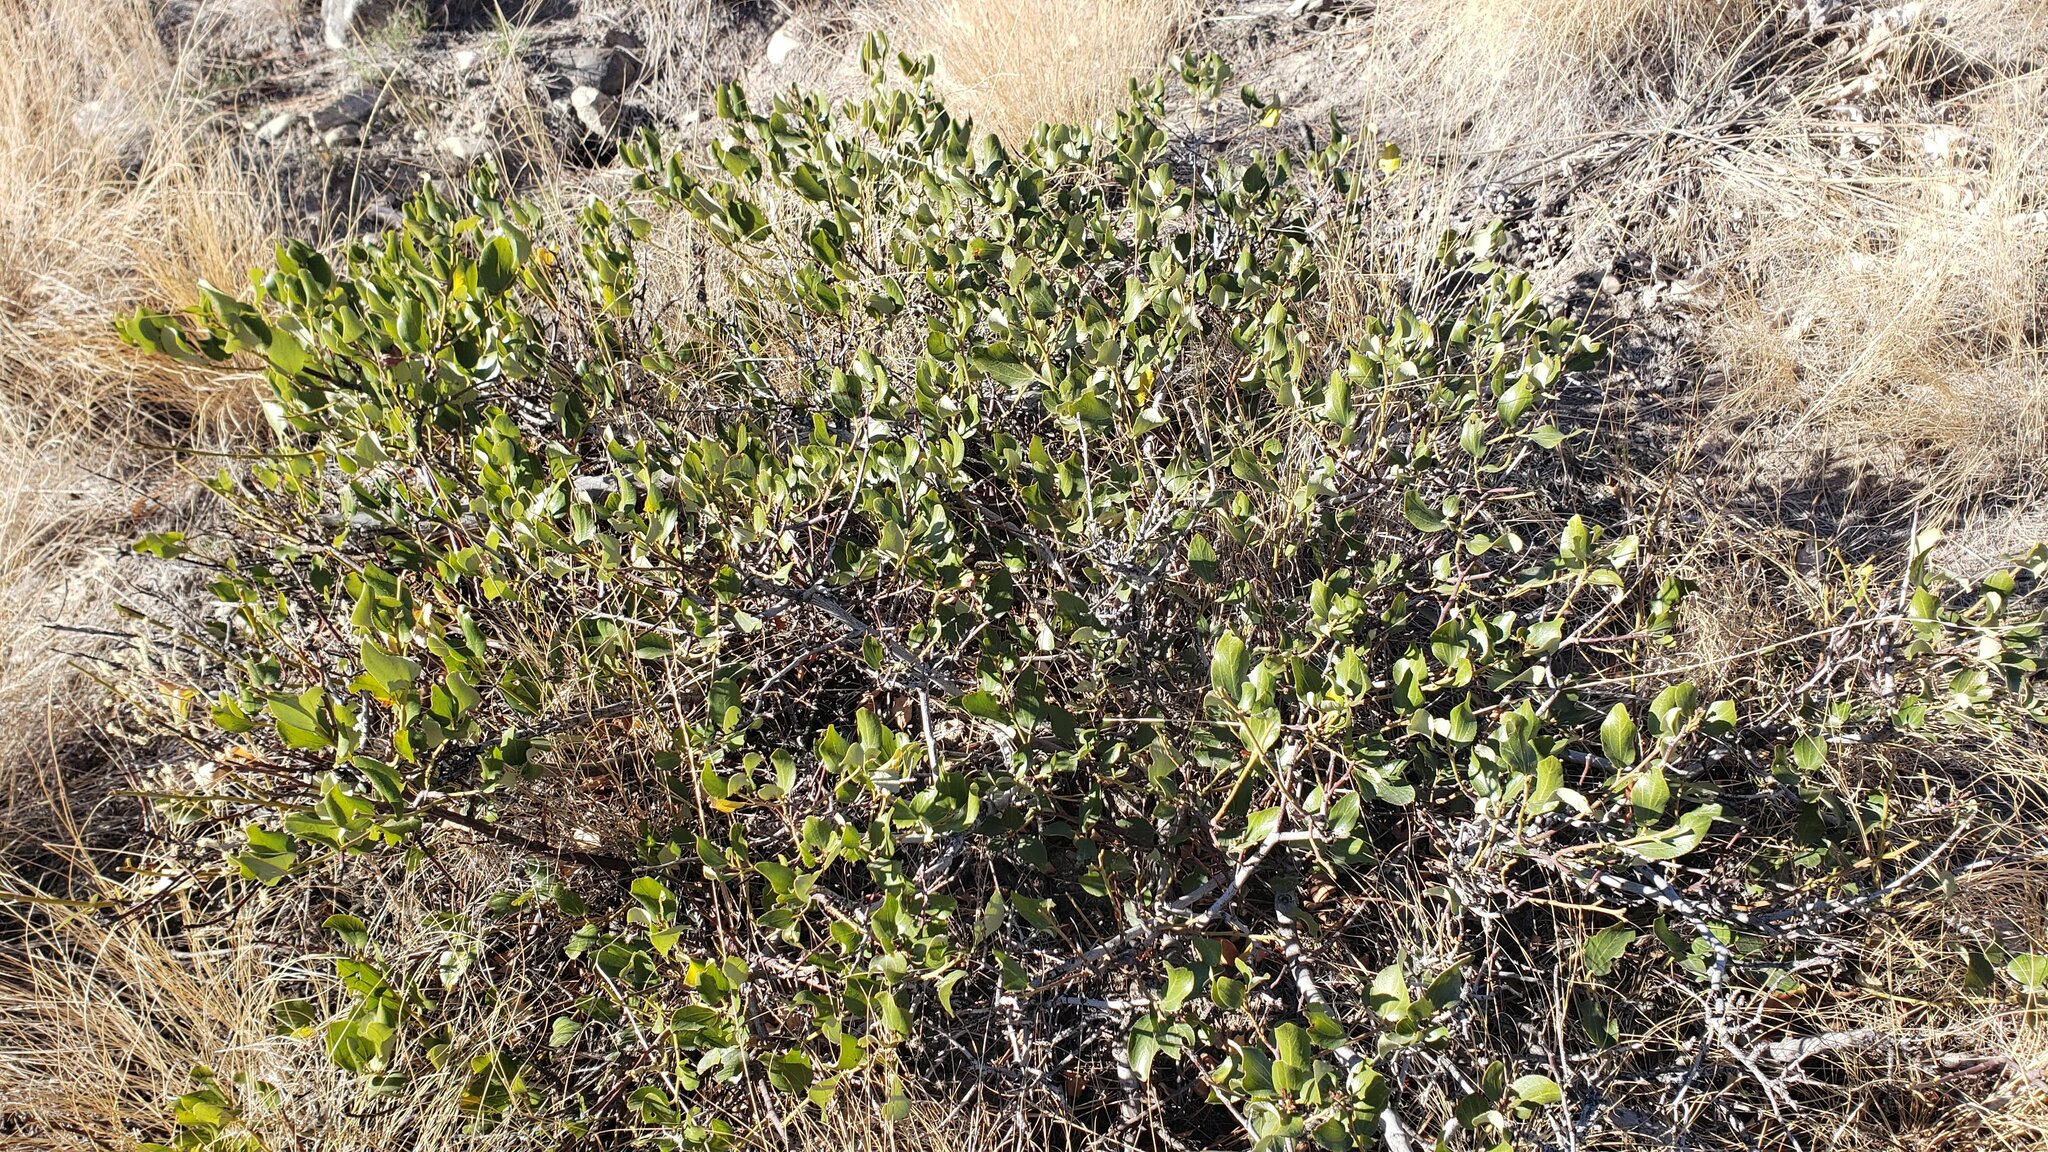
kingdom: Plantae
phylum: Tracheophyta
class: Magnoliopsida
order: Rosales
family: Rhamnaceae
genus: Ceanothus
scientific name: Ceanothus velutinus
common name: Snowbrush
